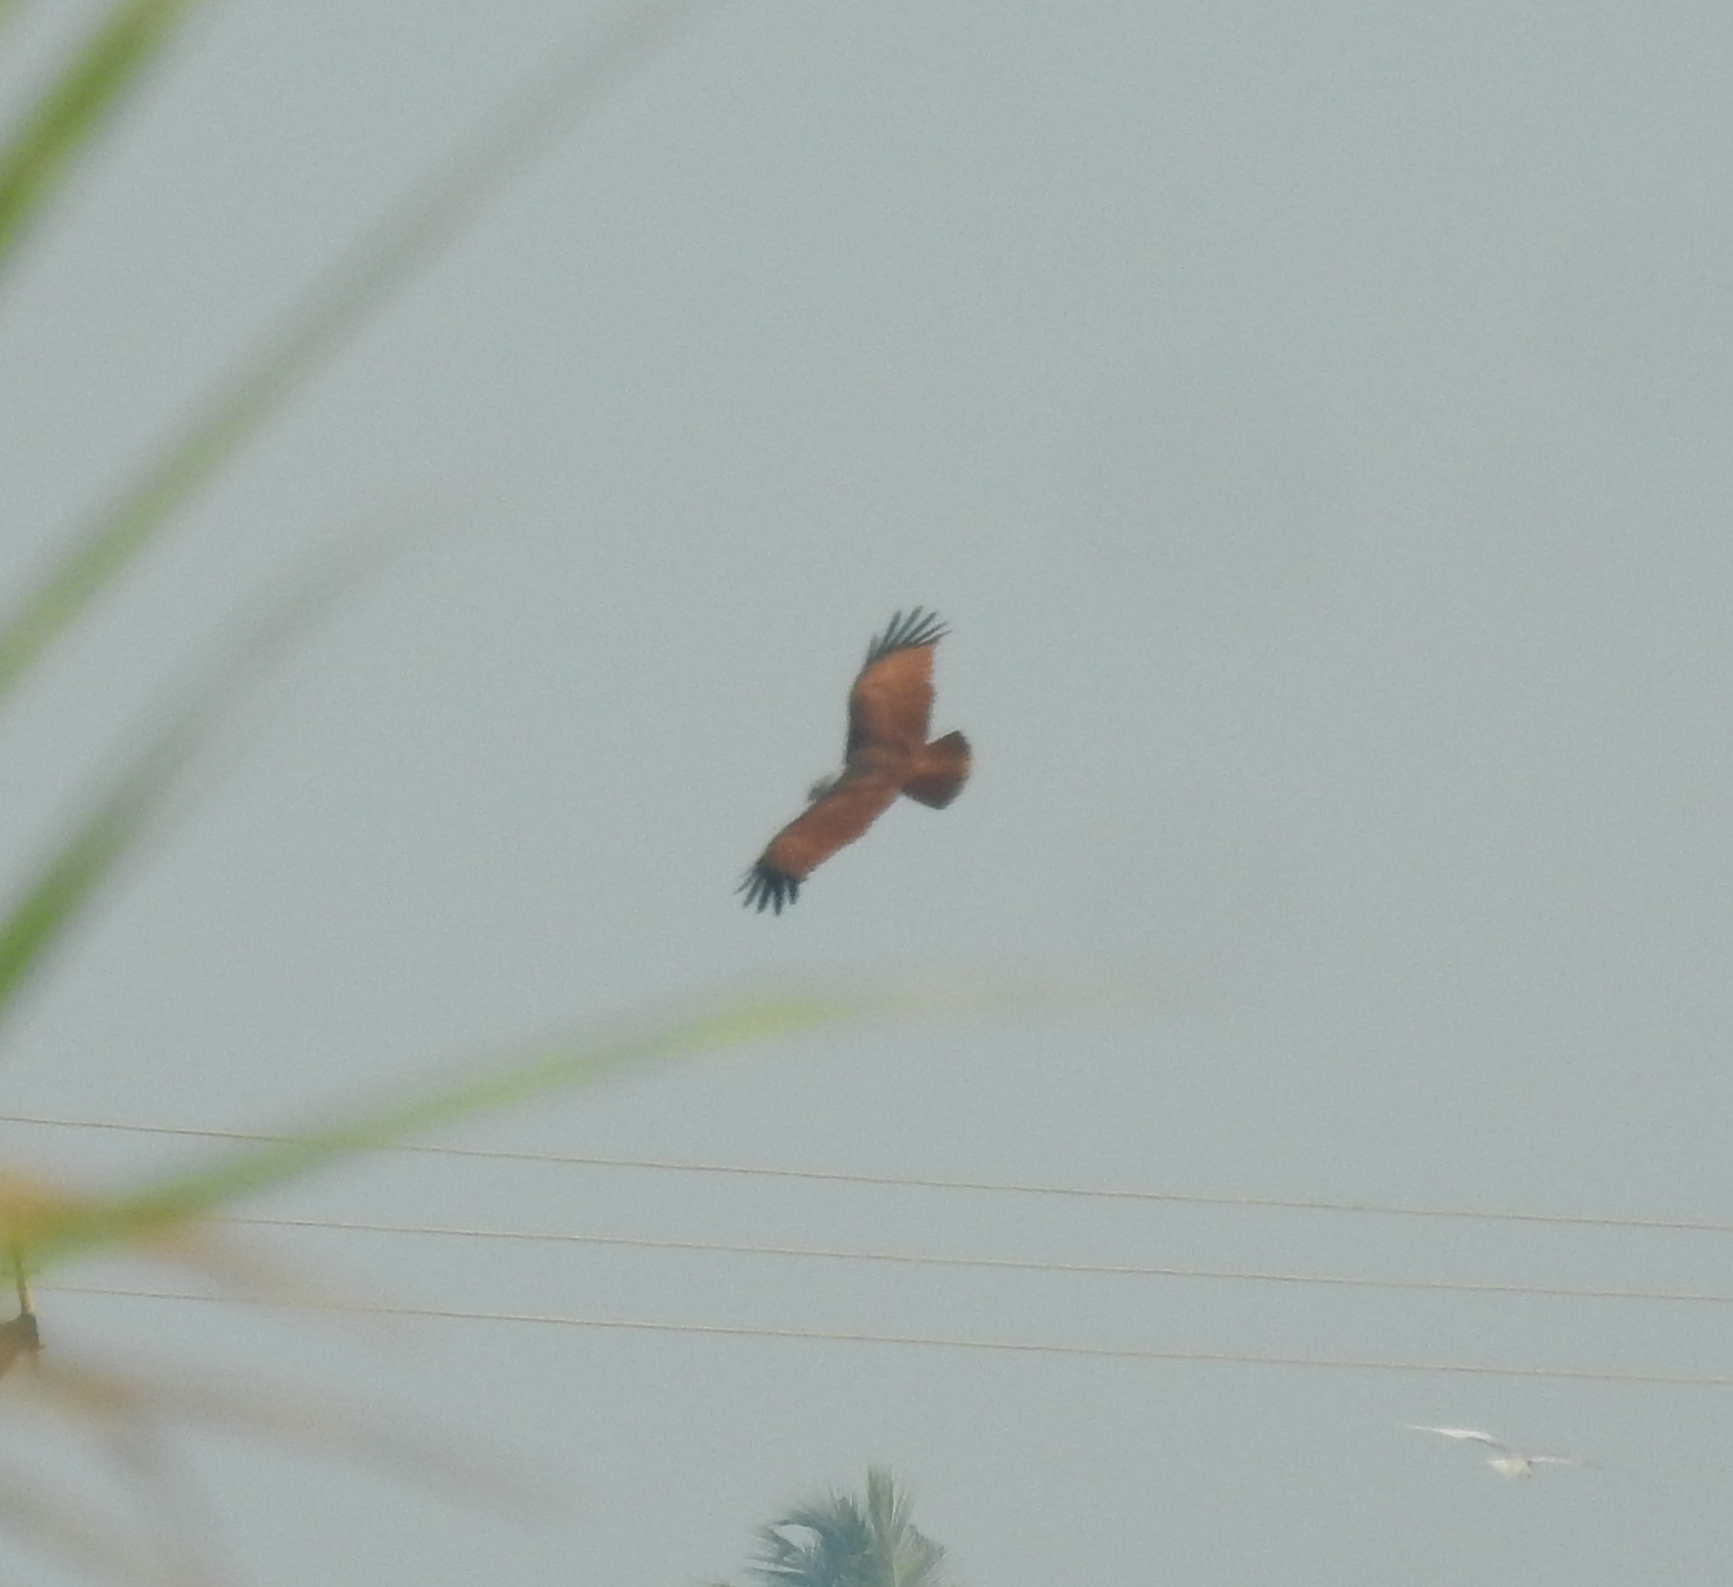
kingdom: Animalia
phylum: Chordata
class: Aves
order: Accipitriformes
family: Accipitridae
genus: Haliastur
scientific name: Haliastur indus
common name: Brahminy kite
